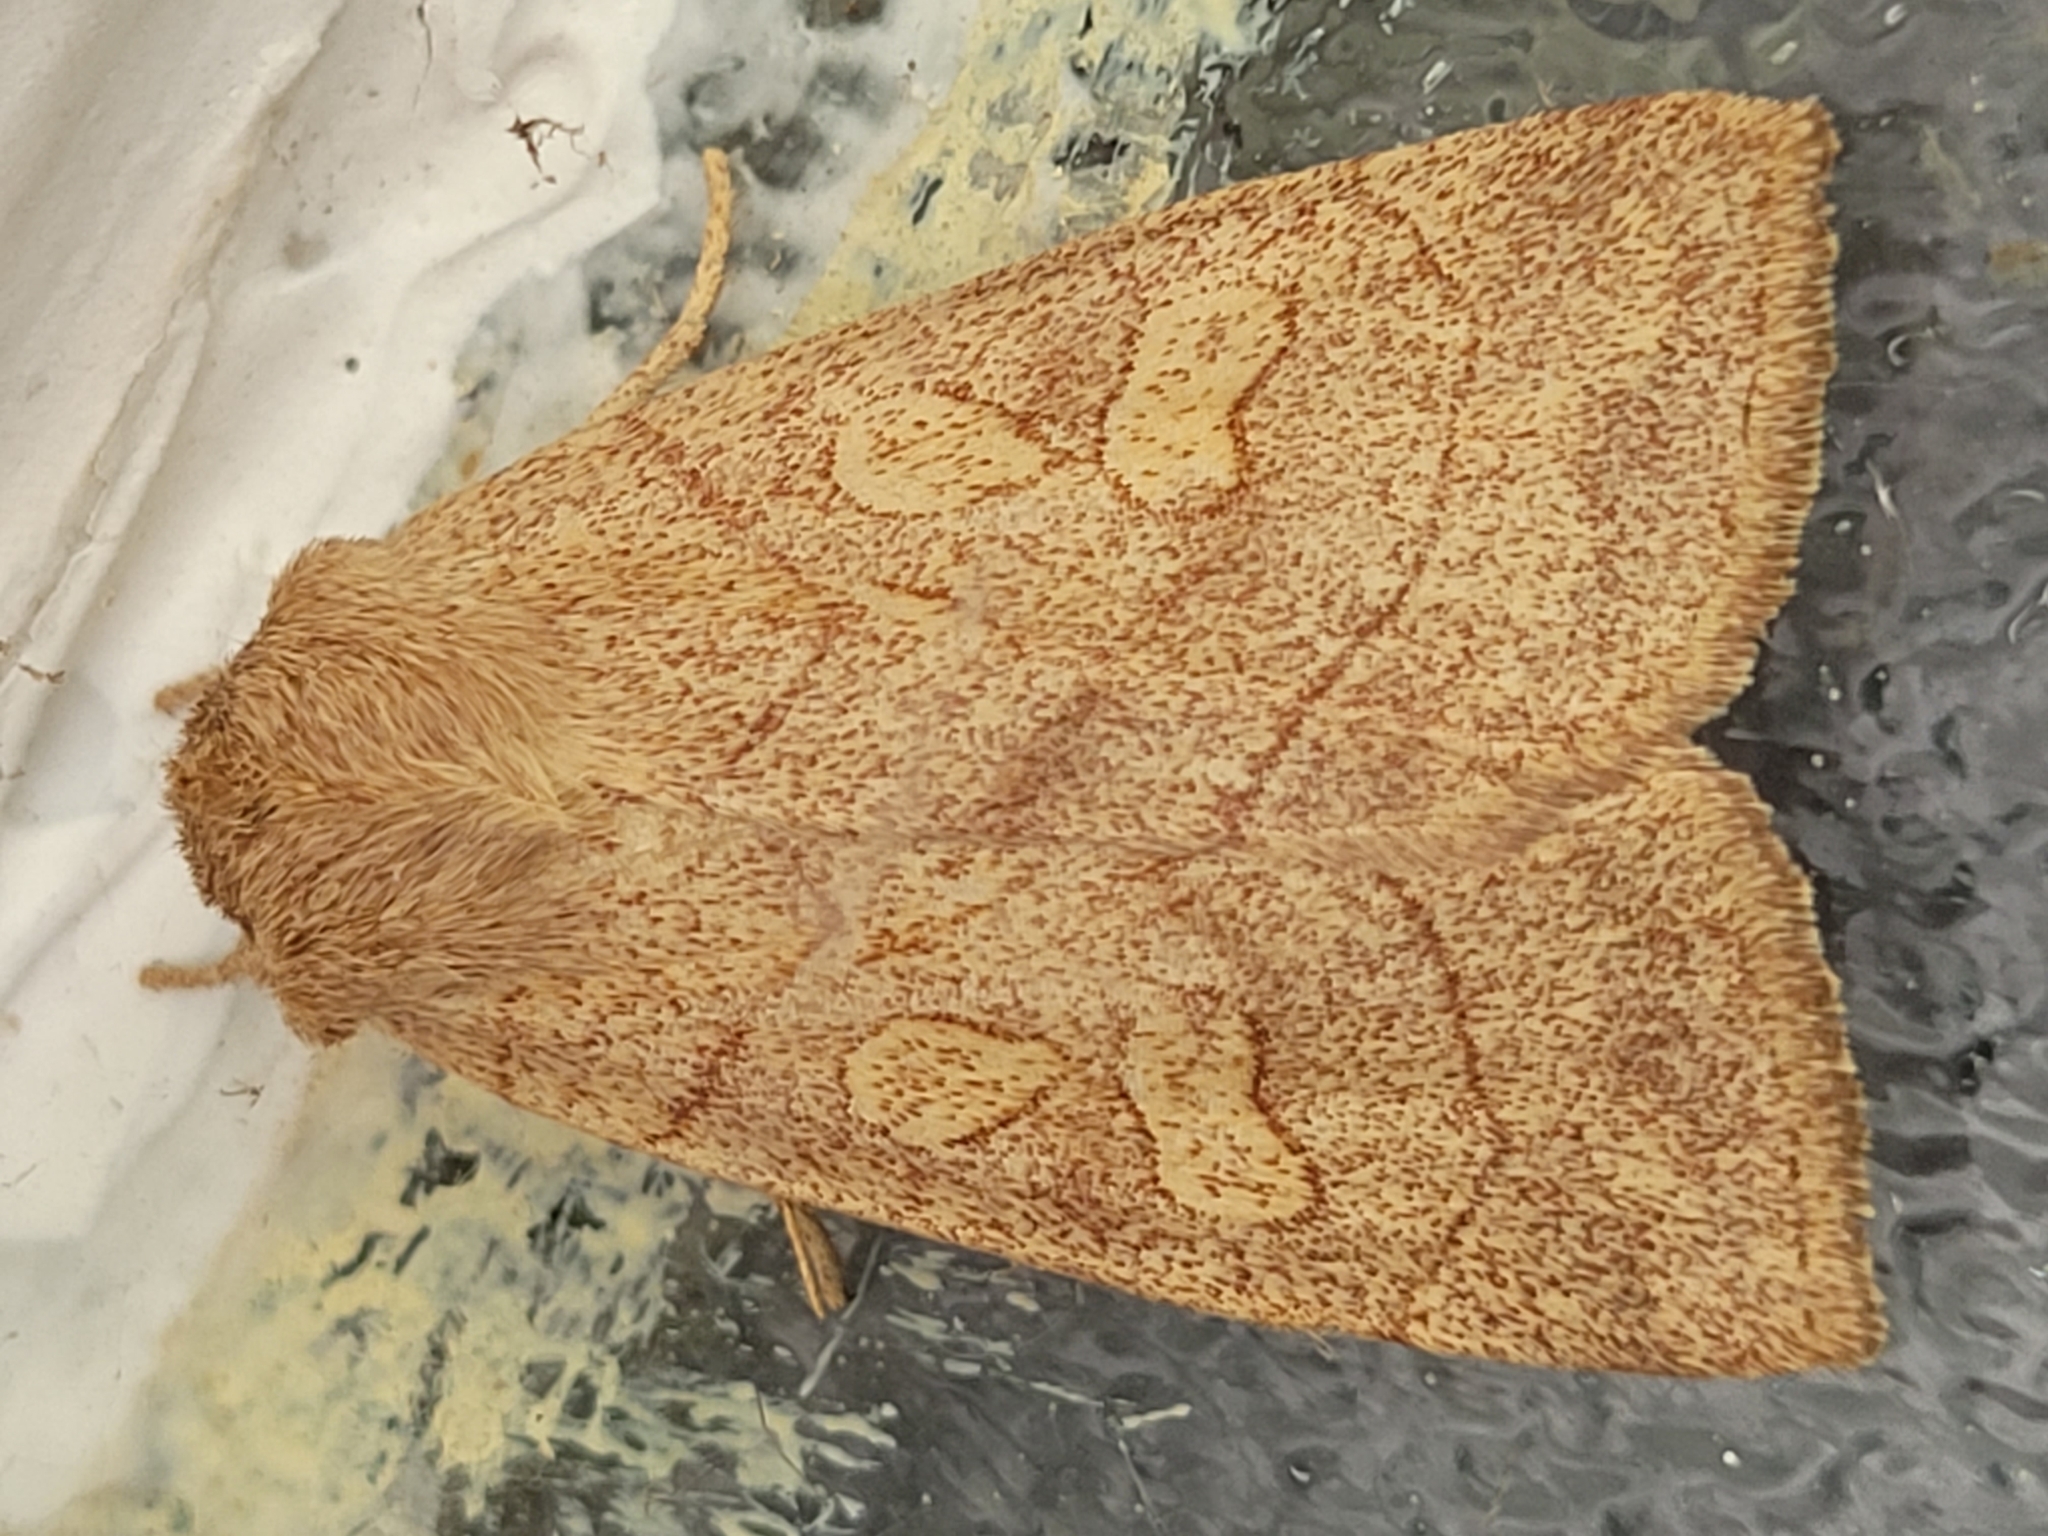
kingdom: Animalia
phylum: Arthropoda
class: Insecta
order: Lepidoptera
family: Noctuidae
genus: Enargia
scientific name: Enargia decolor
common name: Aspen twoleaf tier moth
